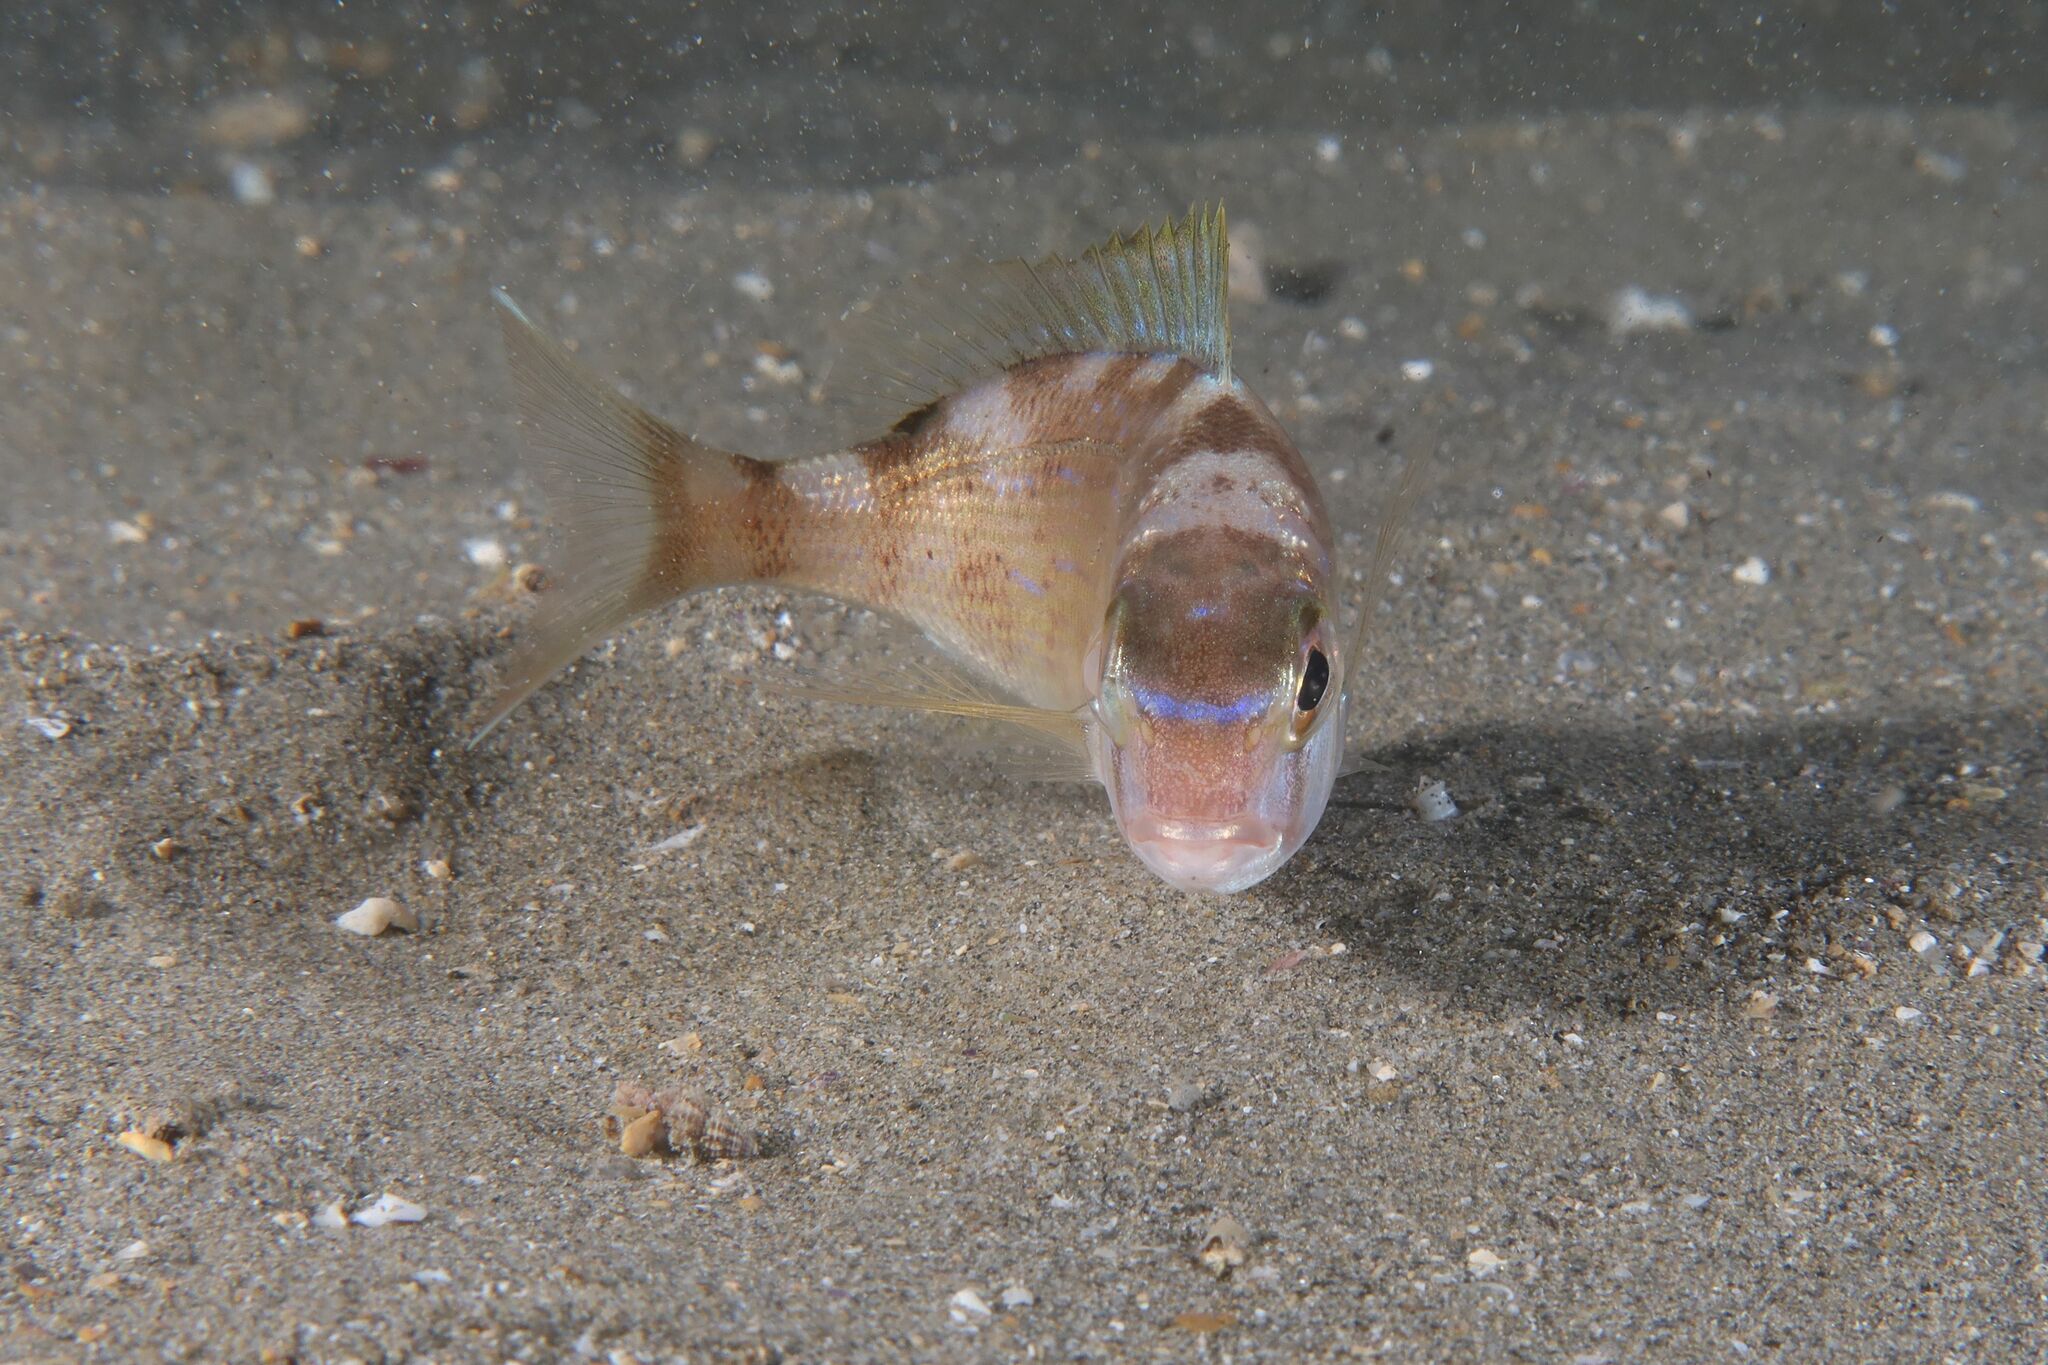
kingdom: Animalia
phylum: Chordata
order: Perciformes
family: Sparidae
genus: Pagrus
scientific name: Pagrus pagrus
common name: Red porgy
